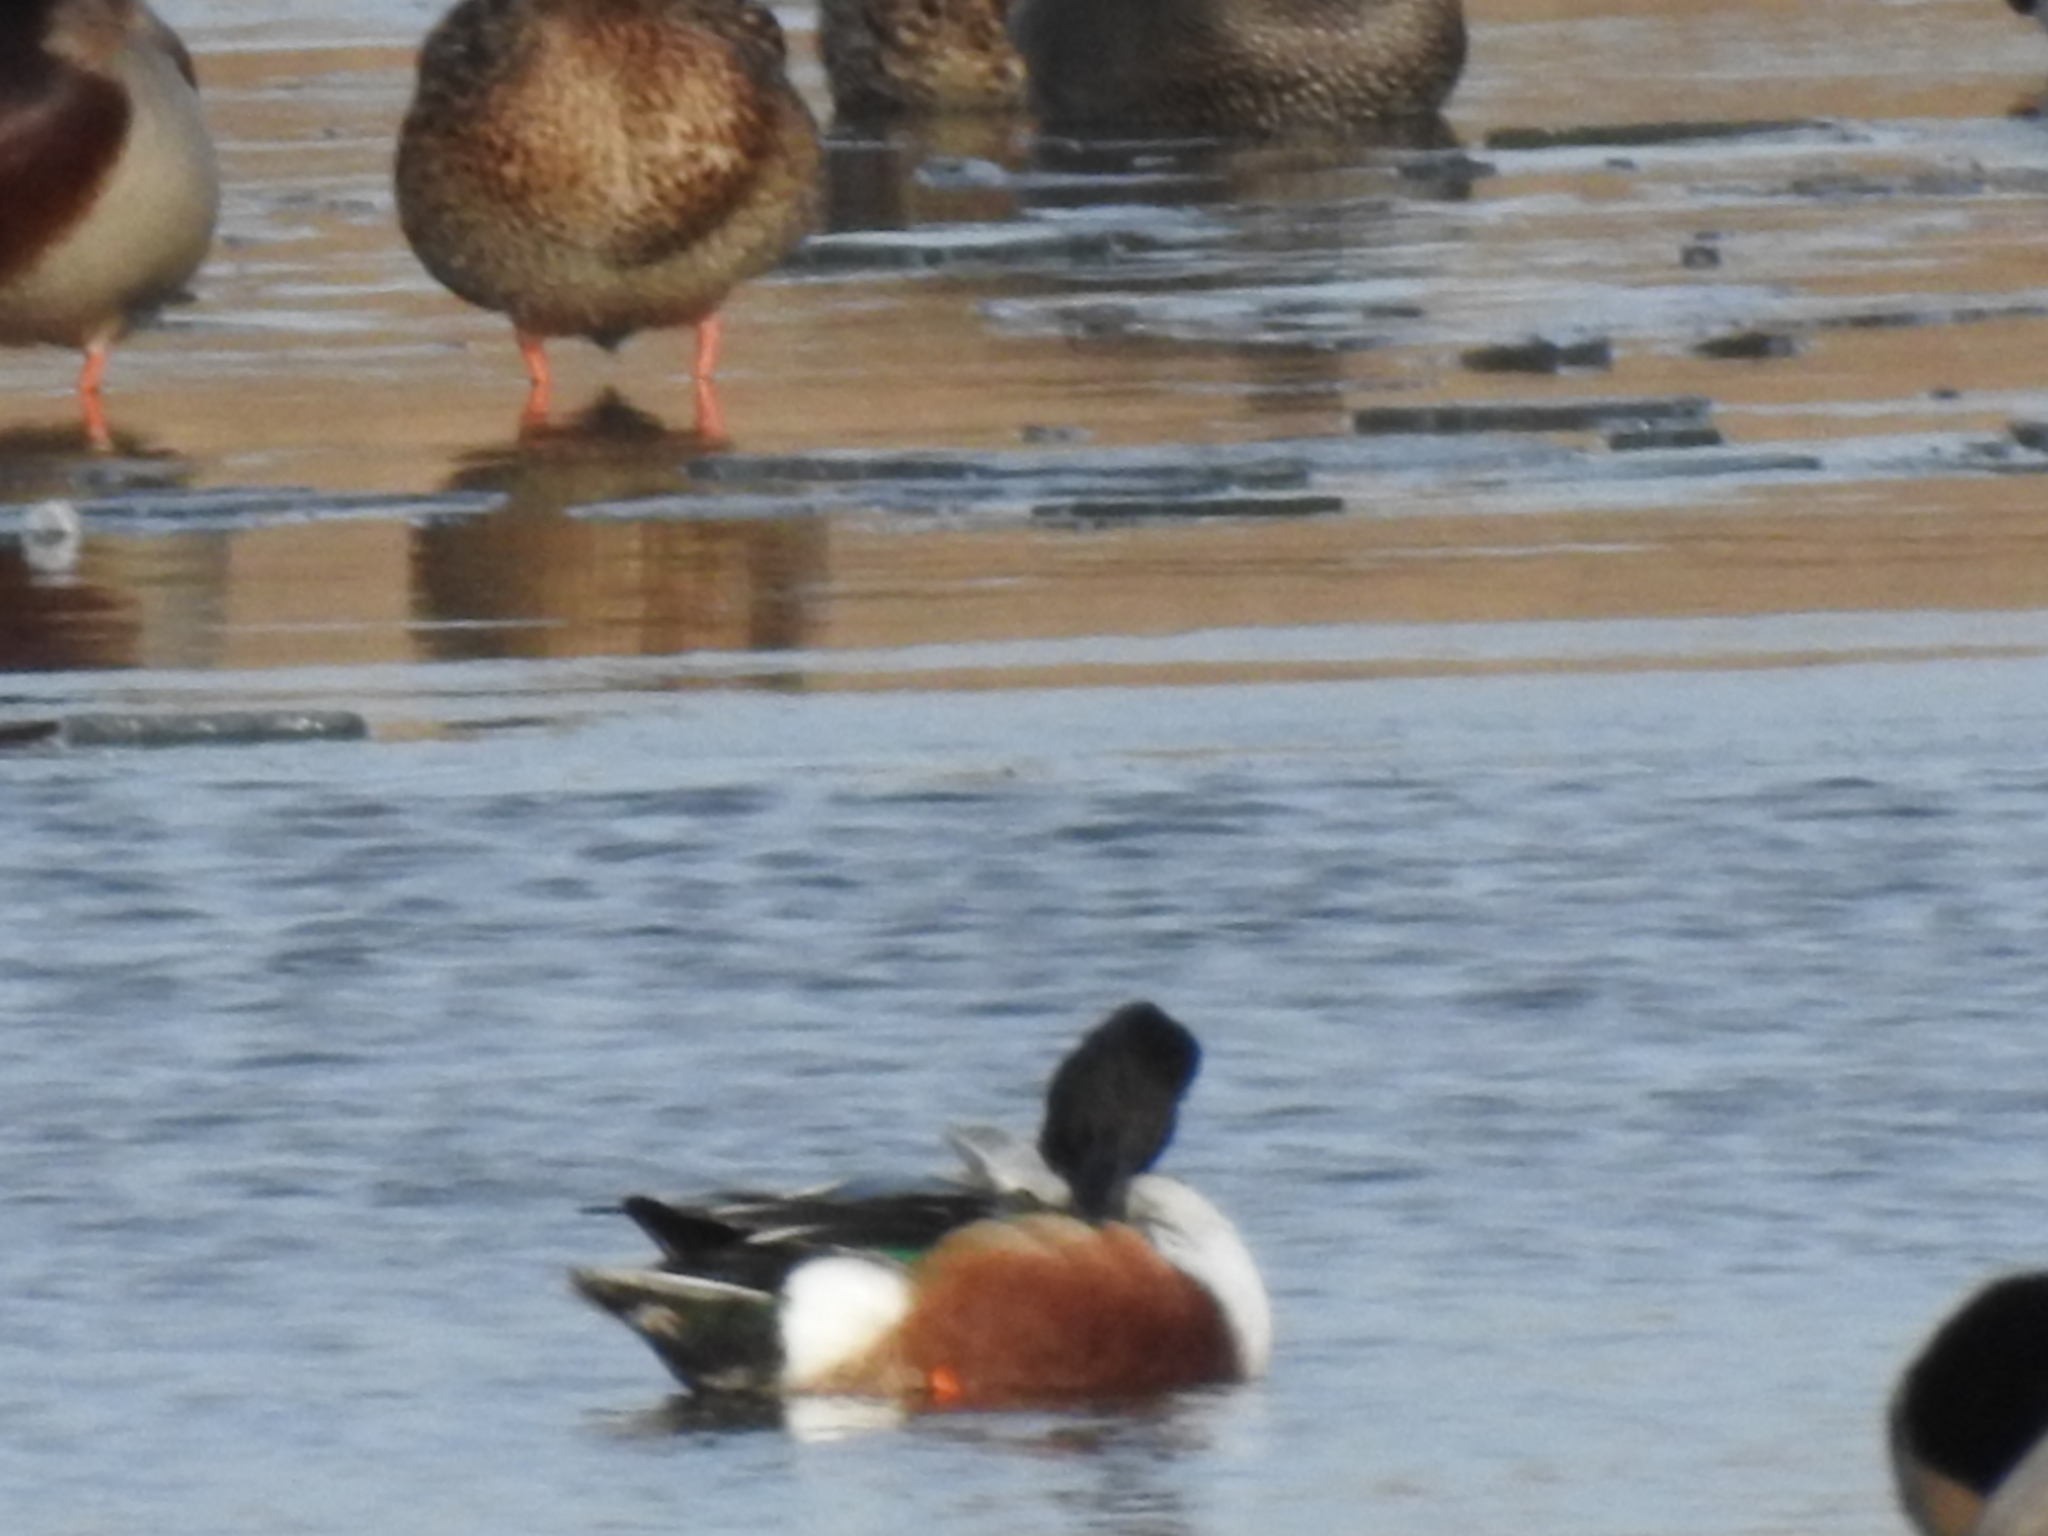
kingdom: Animalia
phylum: Chordata
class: Aves
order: Anseriformes
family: Anatidae
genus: Spatula
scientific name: Spatula clypeata
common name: Northern shoveler
